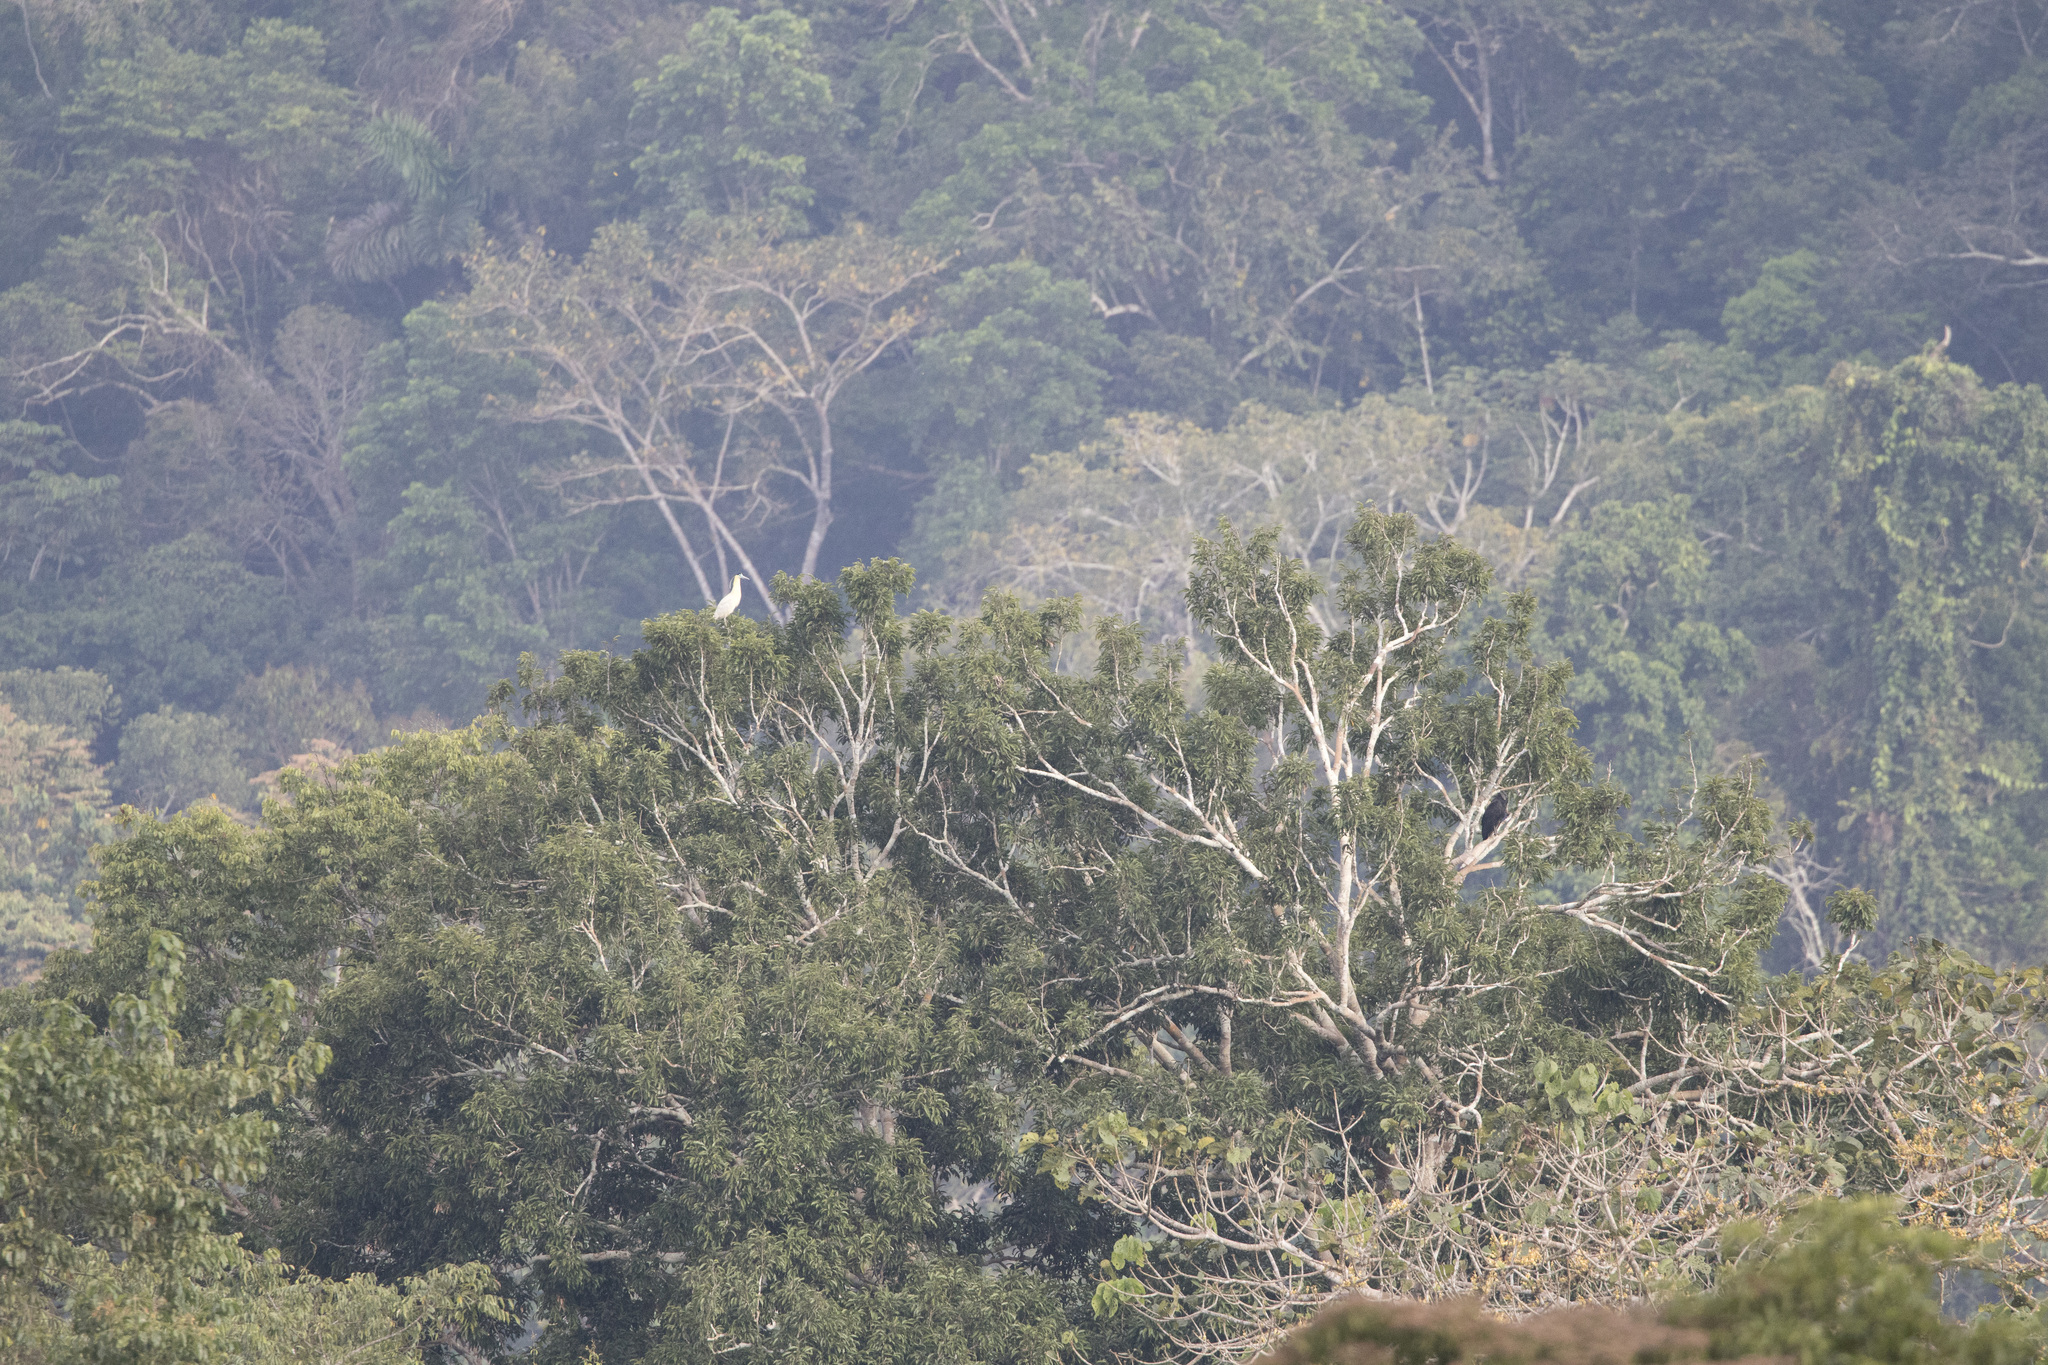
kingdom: Animalia
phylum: Chordata
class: Aves
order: Pelecaniformes
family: Ardeidae
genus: Pilherodius
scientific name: Pilherodius pileatus
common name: Capped heron
